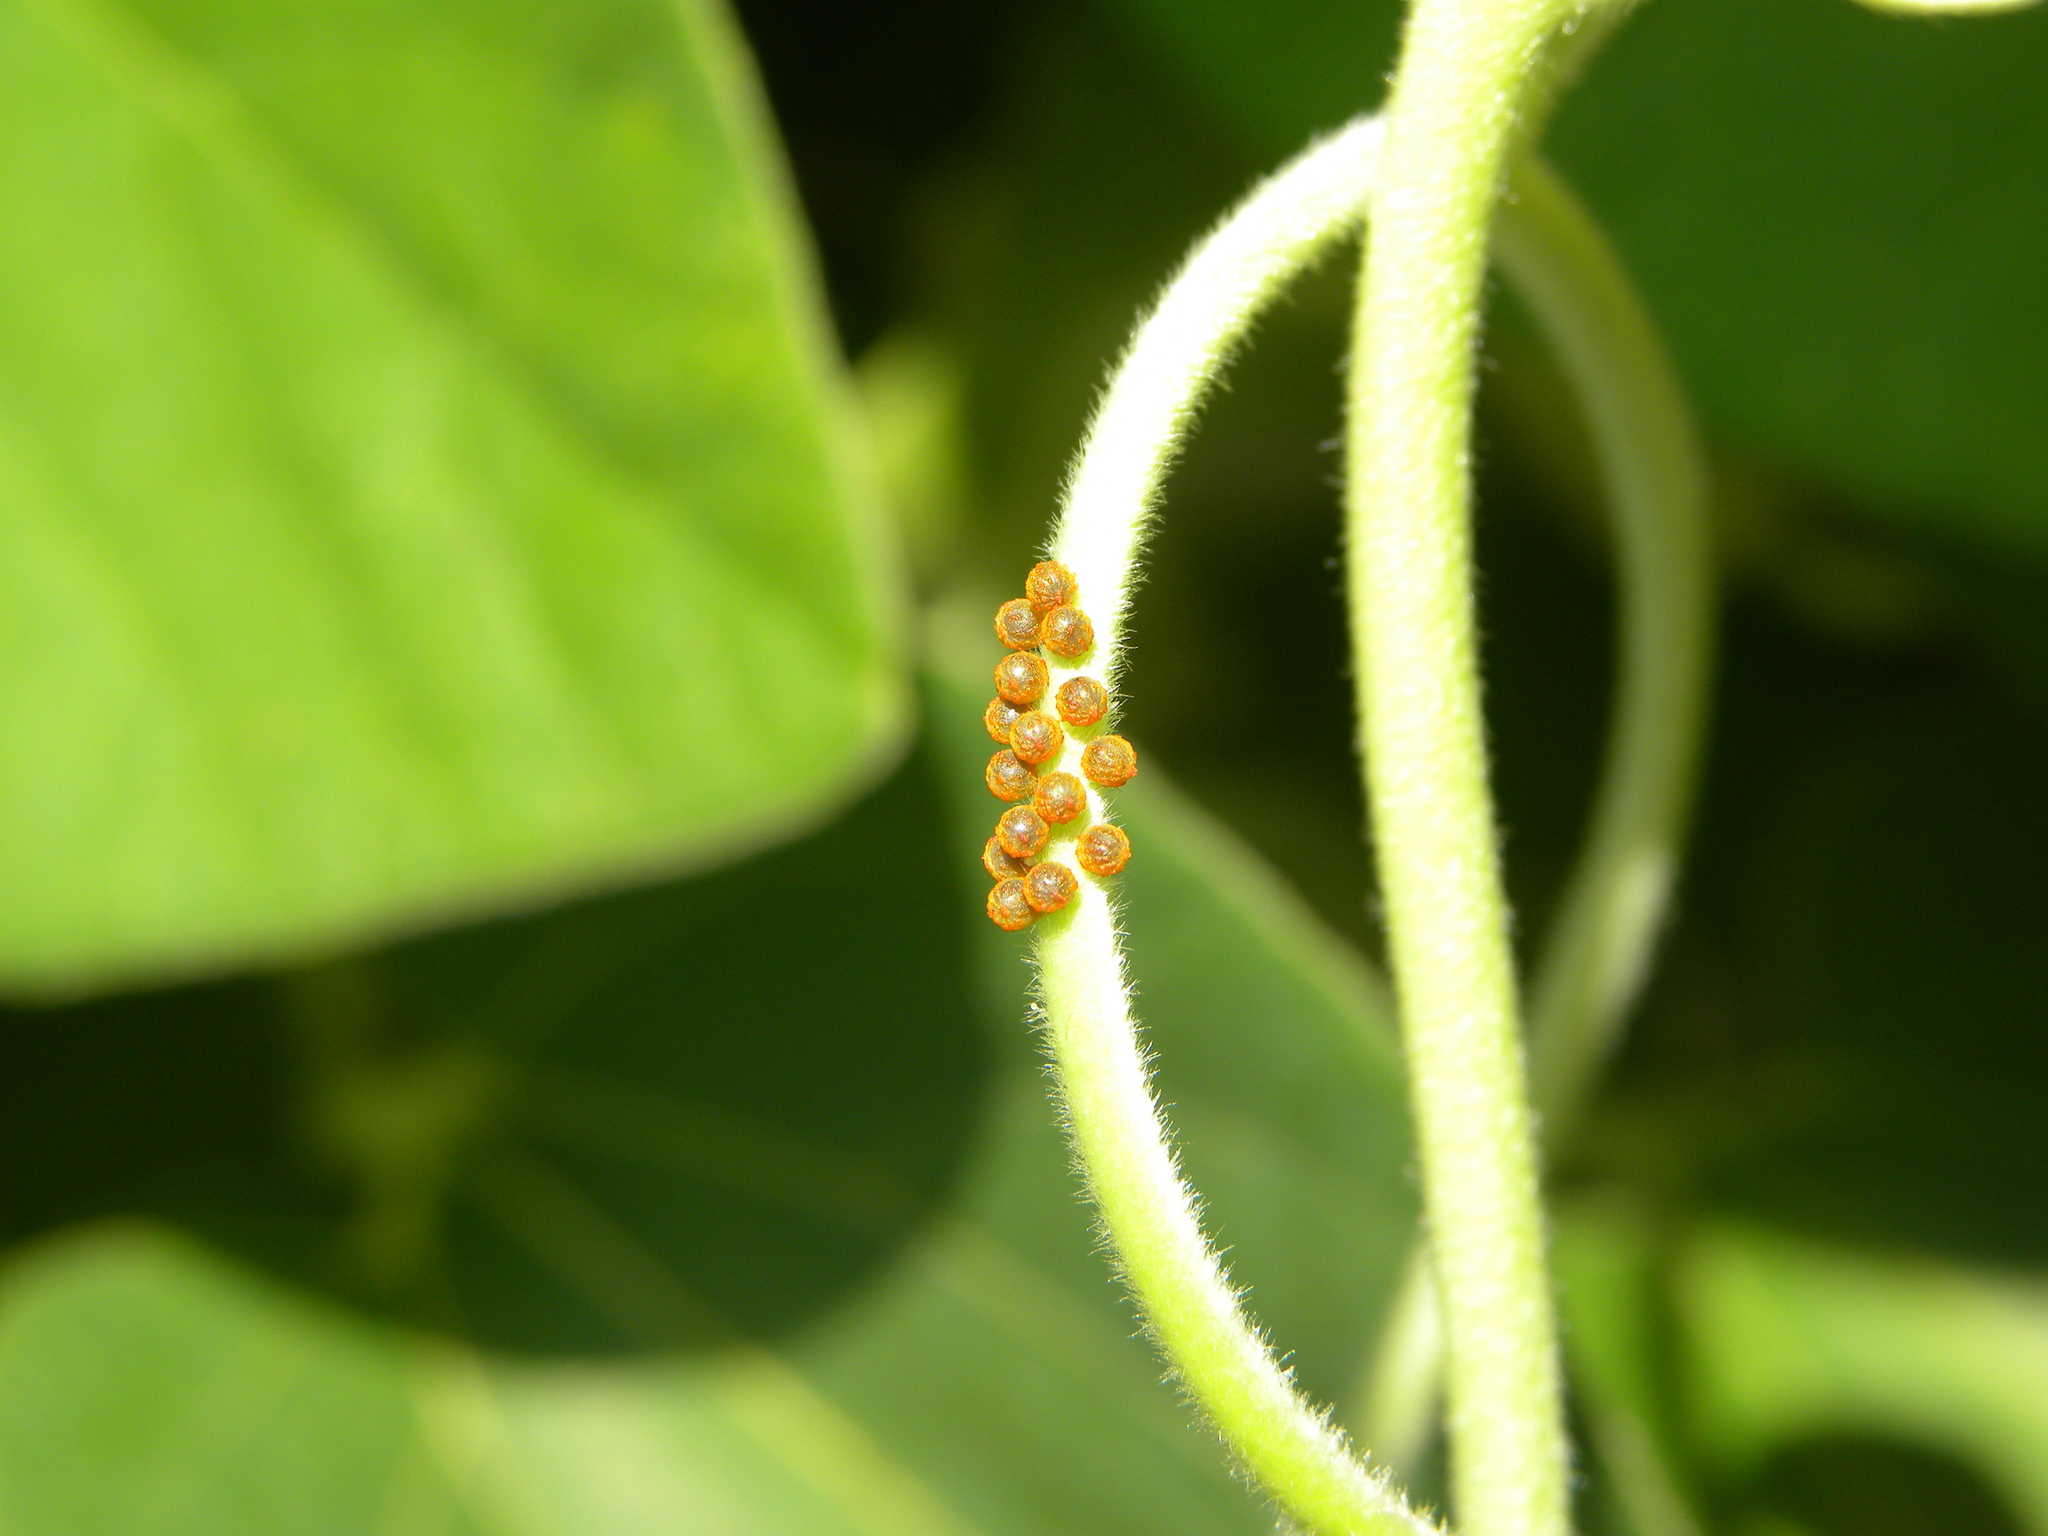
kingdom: Animalia
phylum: Arthropoda
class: Insecta
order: Lepidoptera
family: Papilionidae
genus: Battus
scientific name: Battus philenor
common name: Pipevine swallowtail
